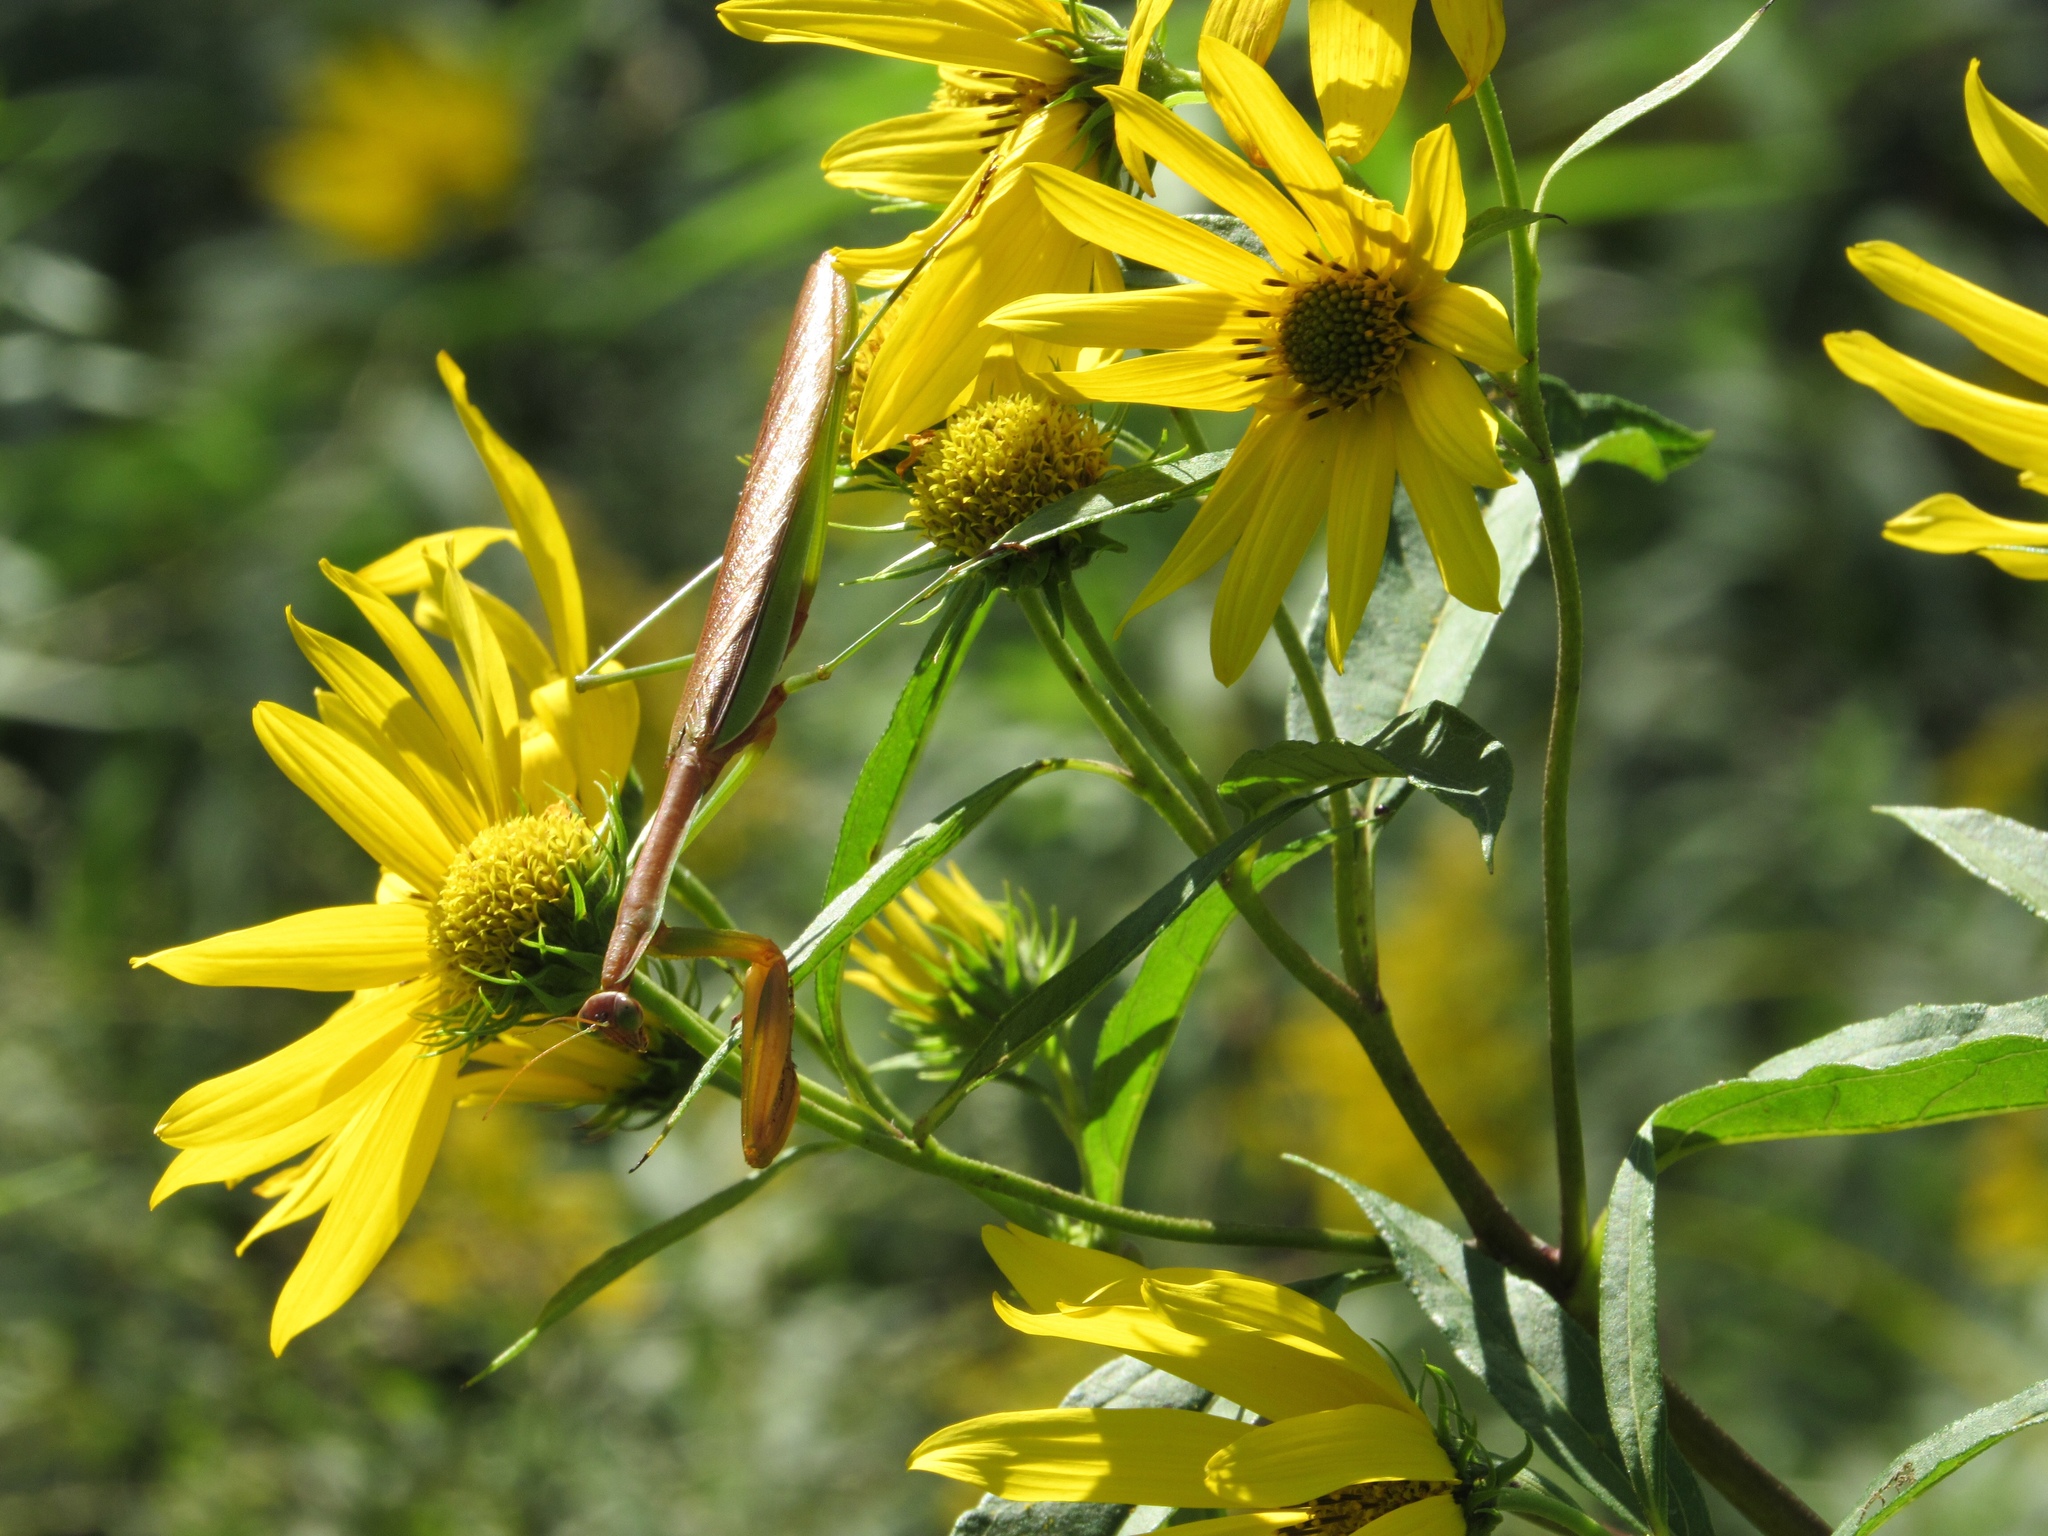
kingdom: Animalia
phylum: Arthropoda
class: Insecta
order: Mantodea
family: Mantidae
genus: Tenodera
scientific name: Tenodera sinensis
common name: Chinese mantis
